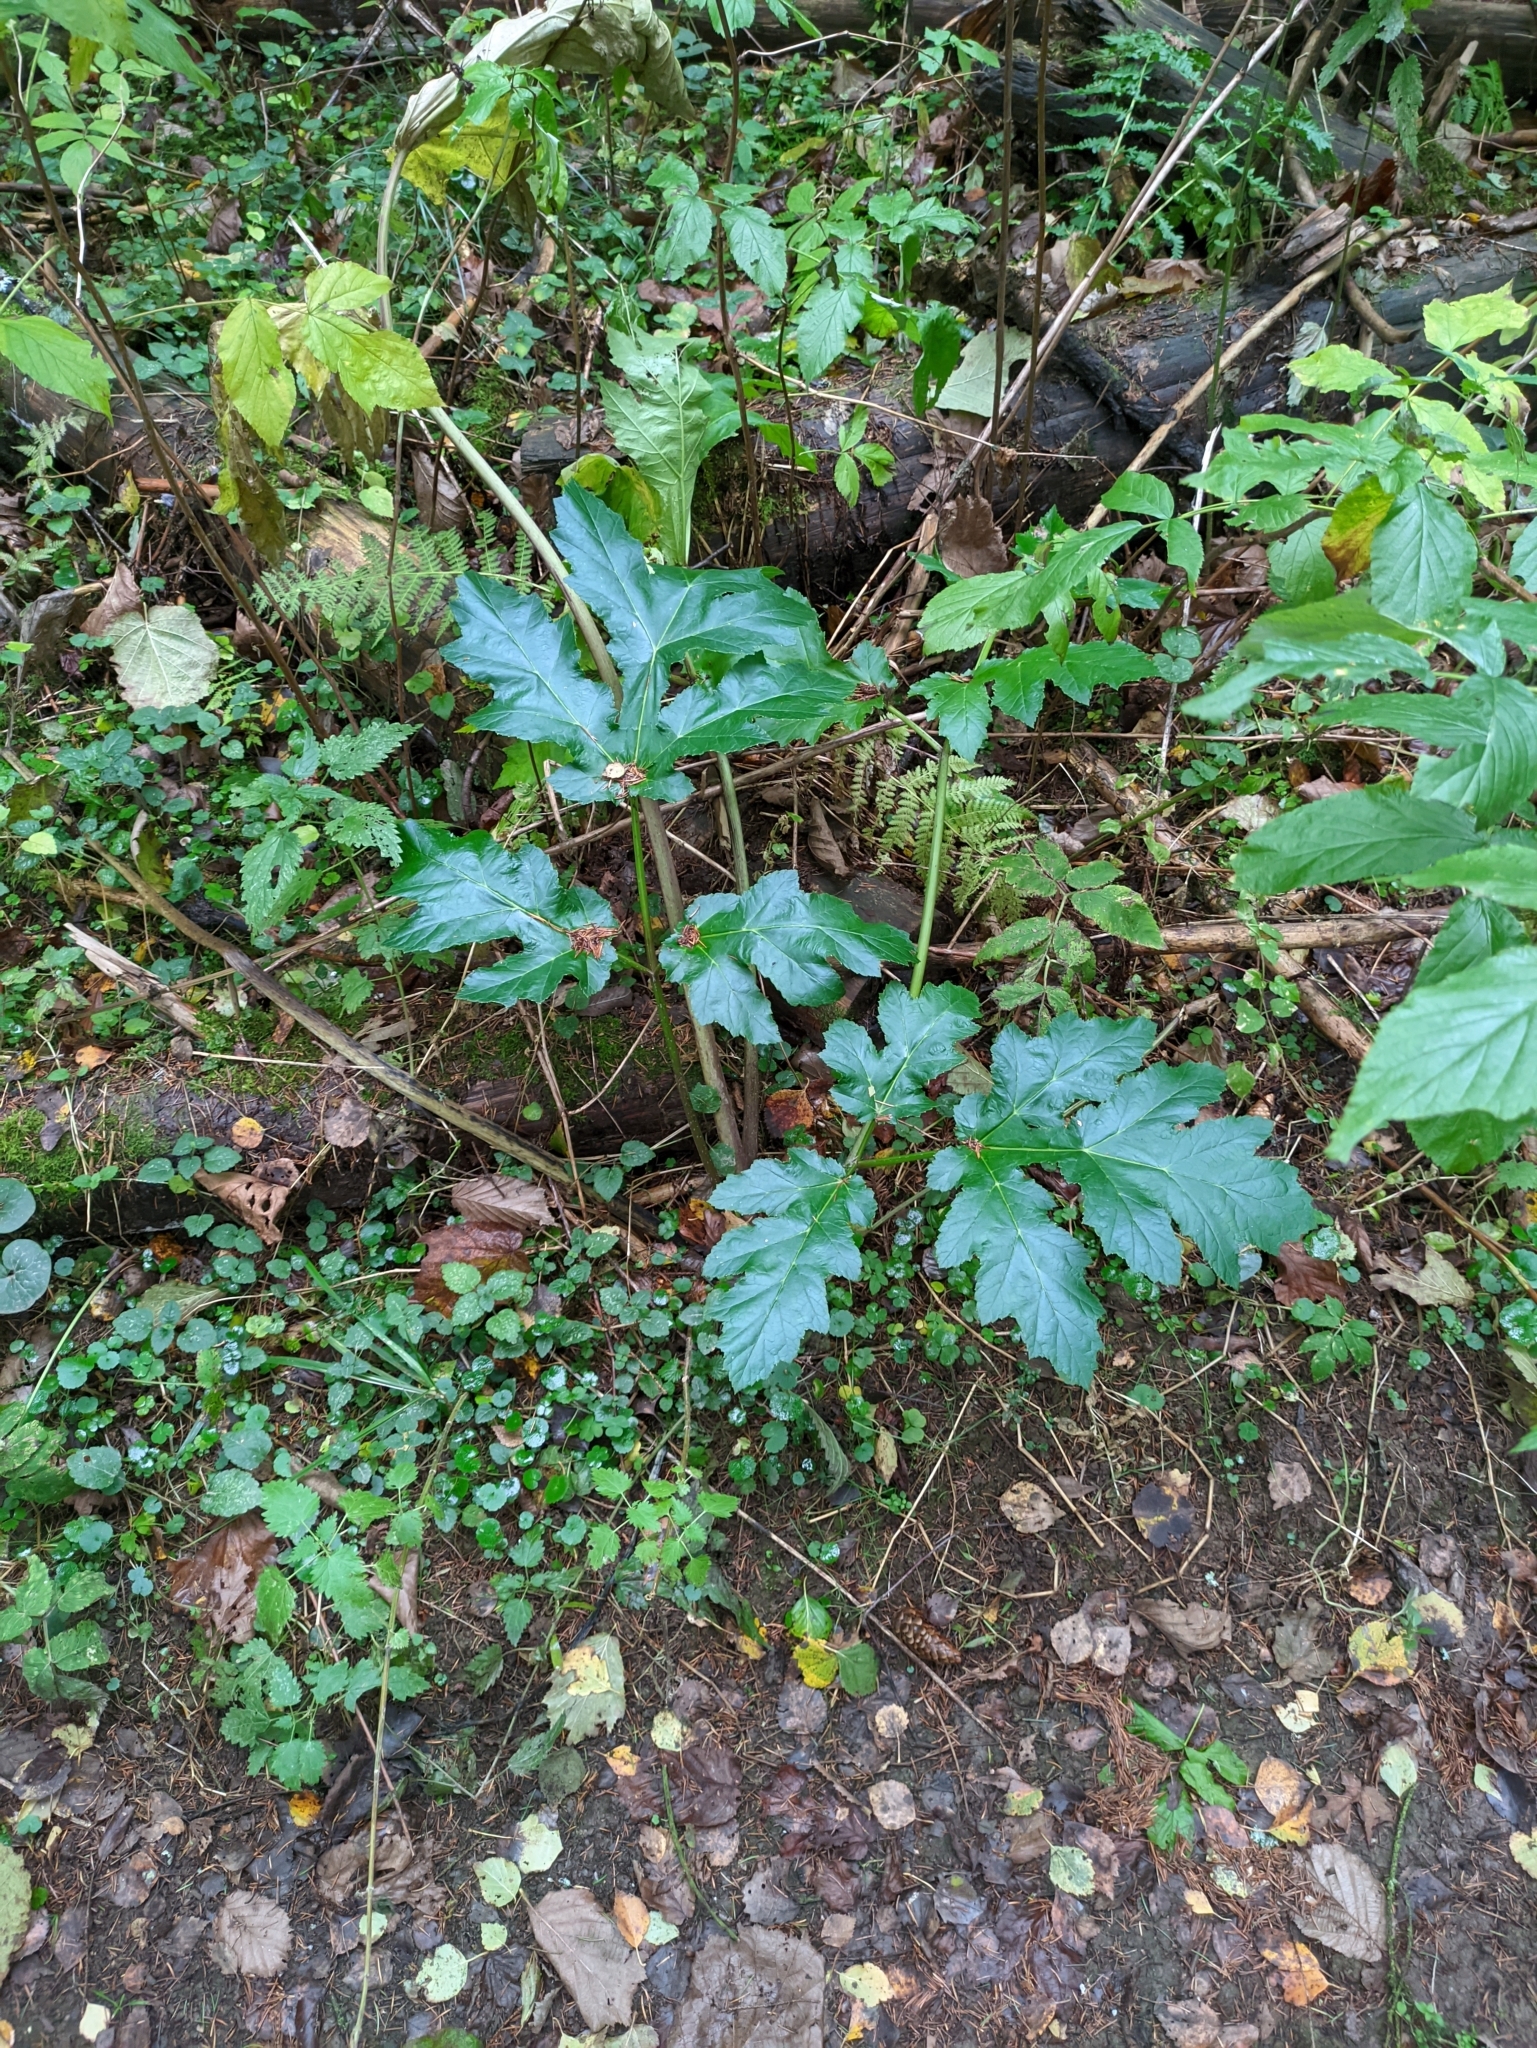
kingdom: Plantae
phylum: Tracheophyta
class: Magnoliopsida
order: Apiales
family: Apiaceae
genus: Heracleum
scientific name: Heracleum sosnowskyi
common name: Sosnowsky's hogweed
